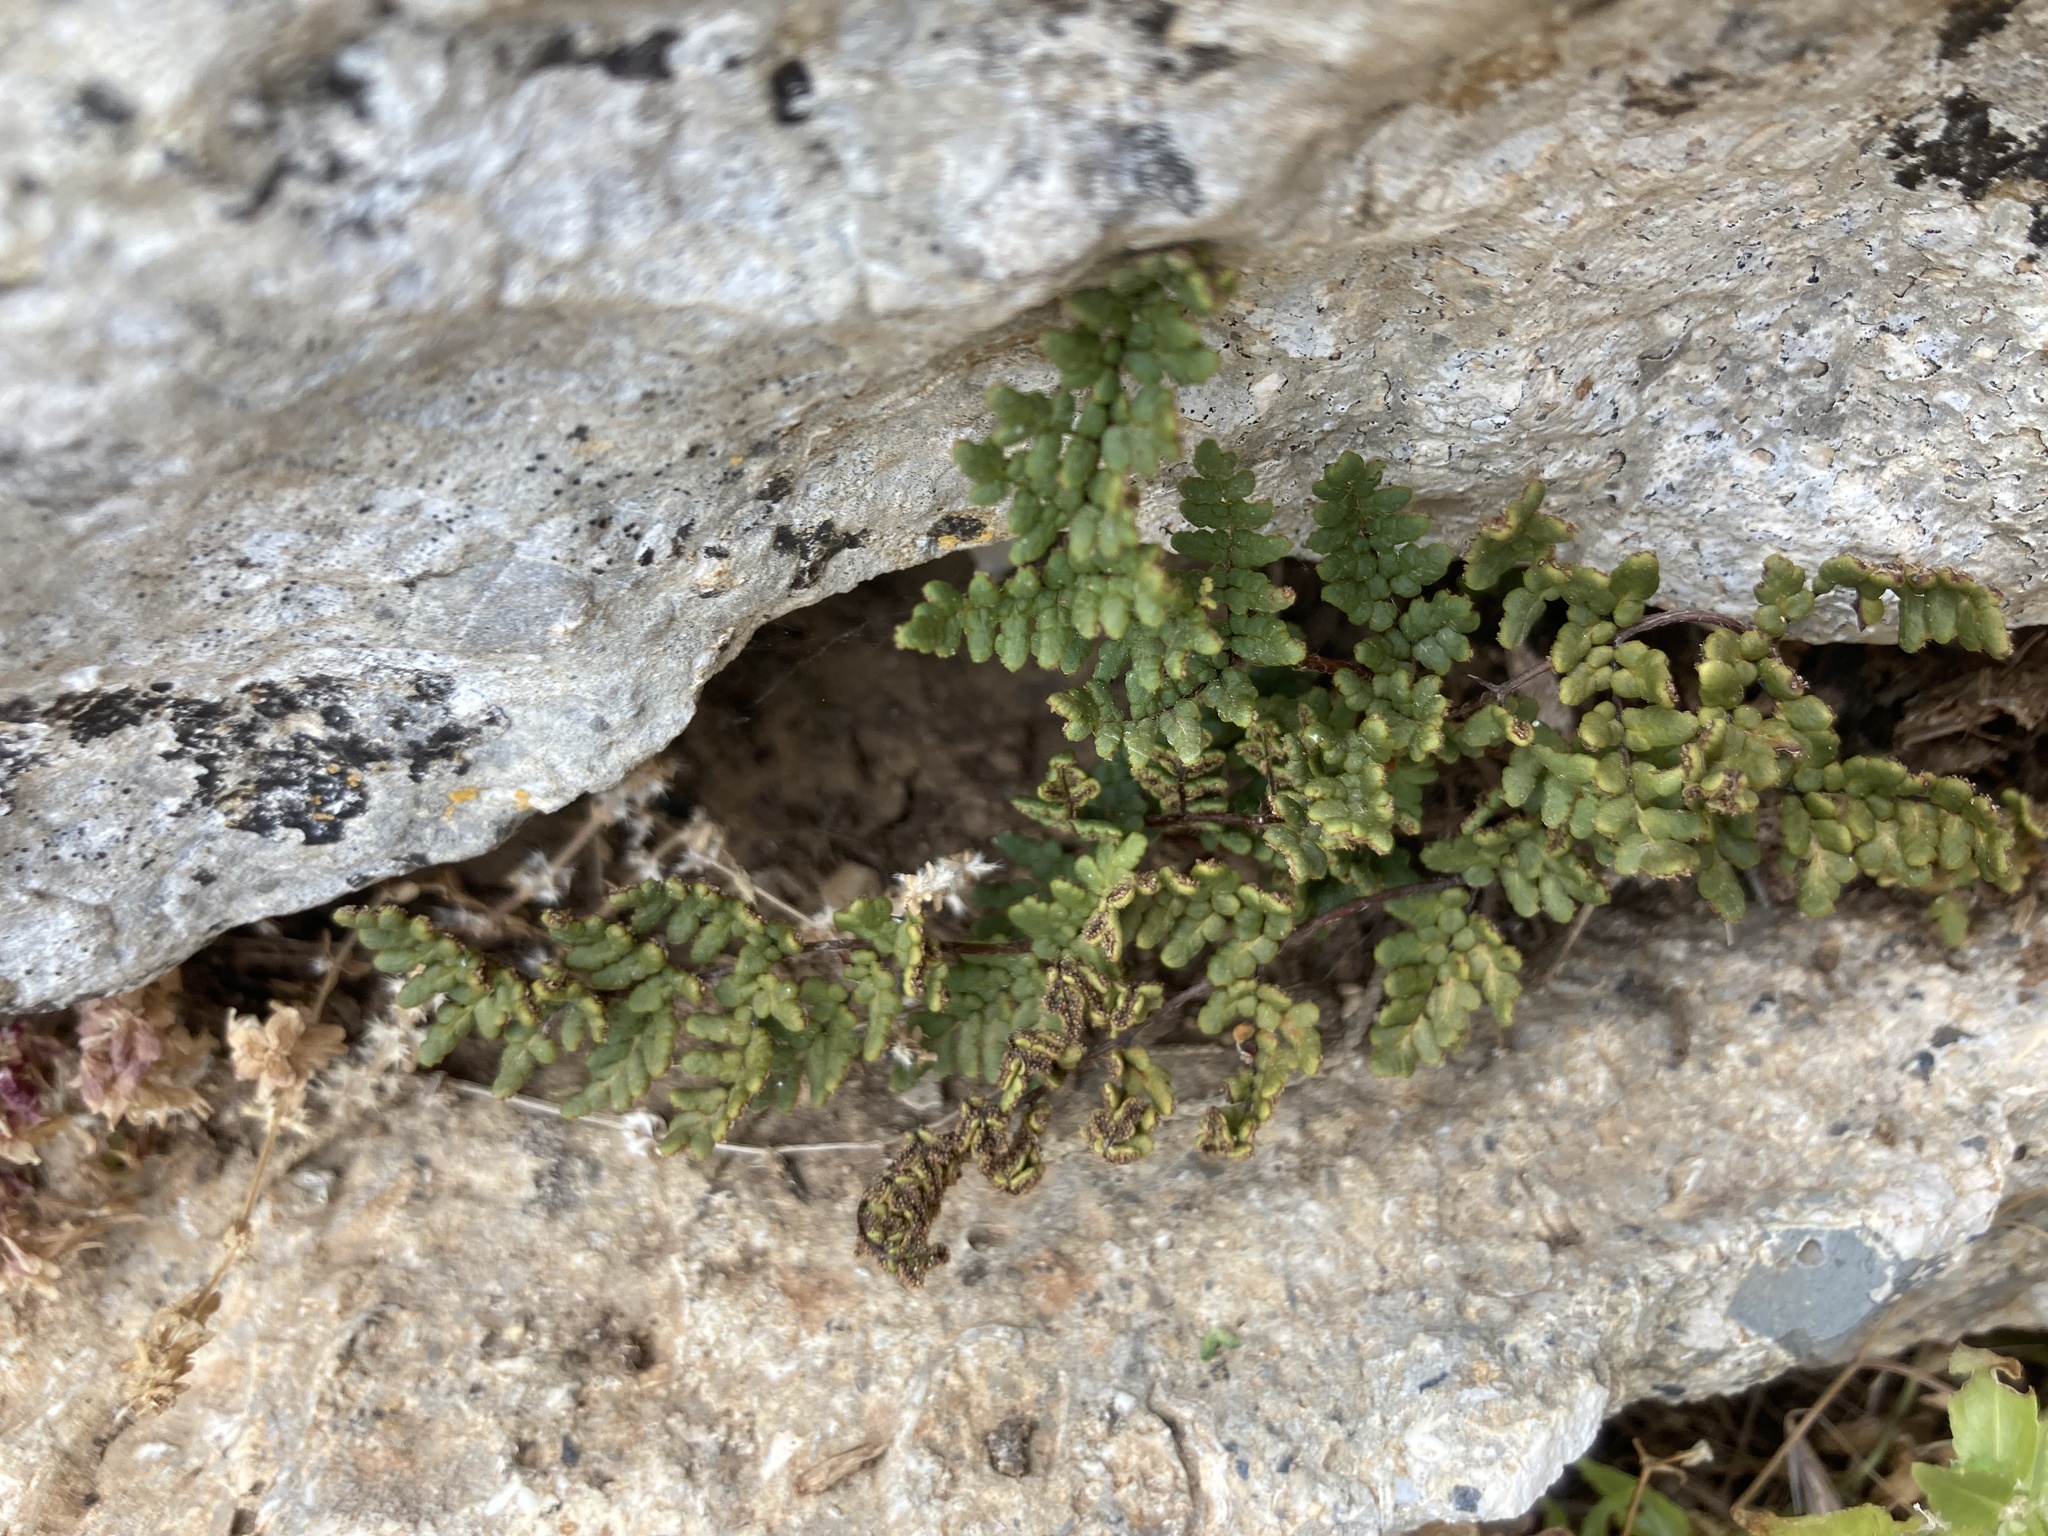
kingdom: Plantae
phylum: Tracheophyta
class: Polypodiopsida
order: Polypodiales
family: Pteridaceae
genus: Oeosporangium
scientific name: Oeosporangium pteridioides
